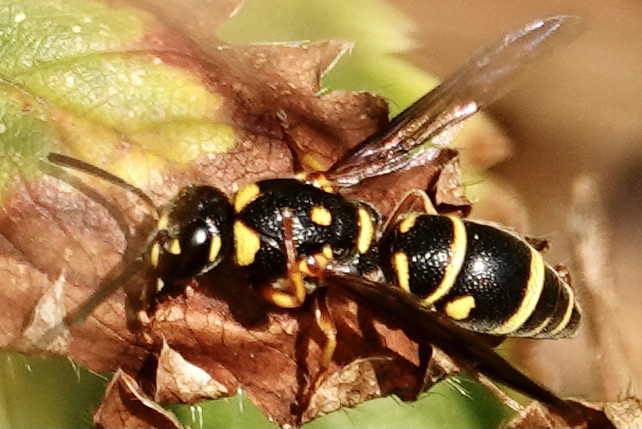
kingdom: Animalia
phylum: Arthropoda
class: Insecta
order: Hymenoptera
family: Eumenidae
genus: Parancistrocerus
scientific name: Parancistrocerus pedestris
